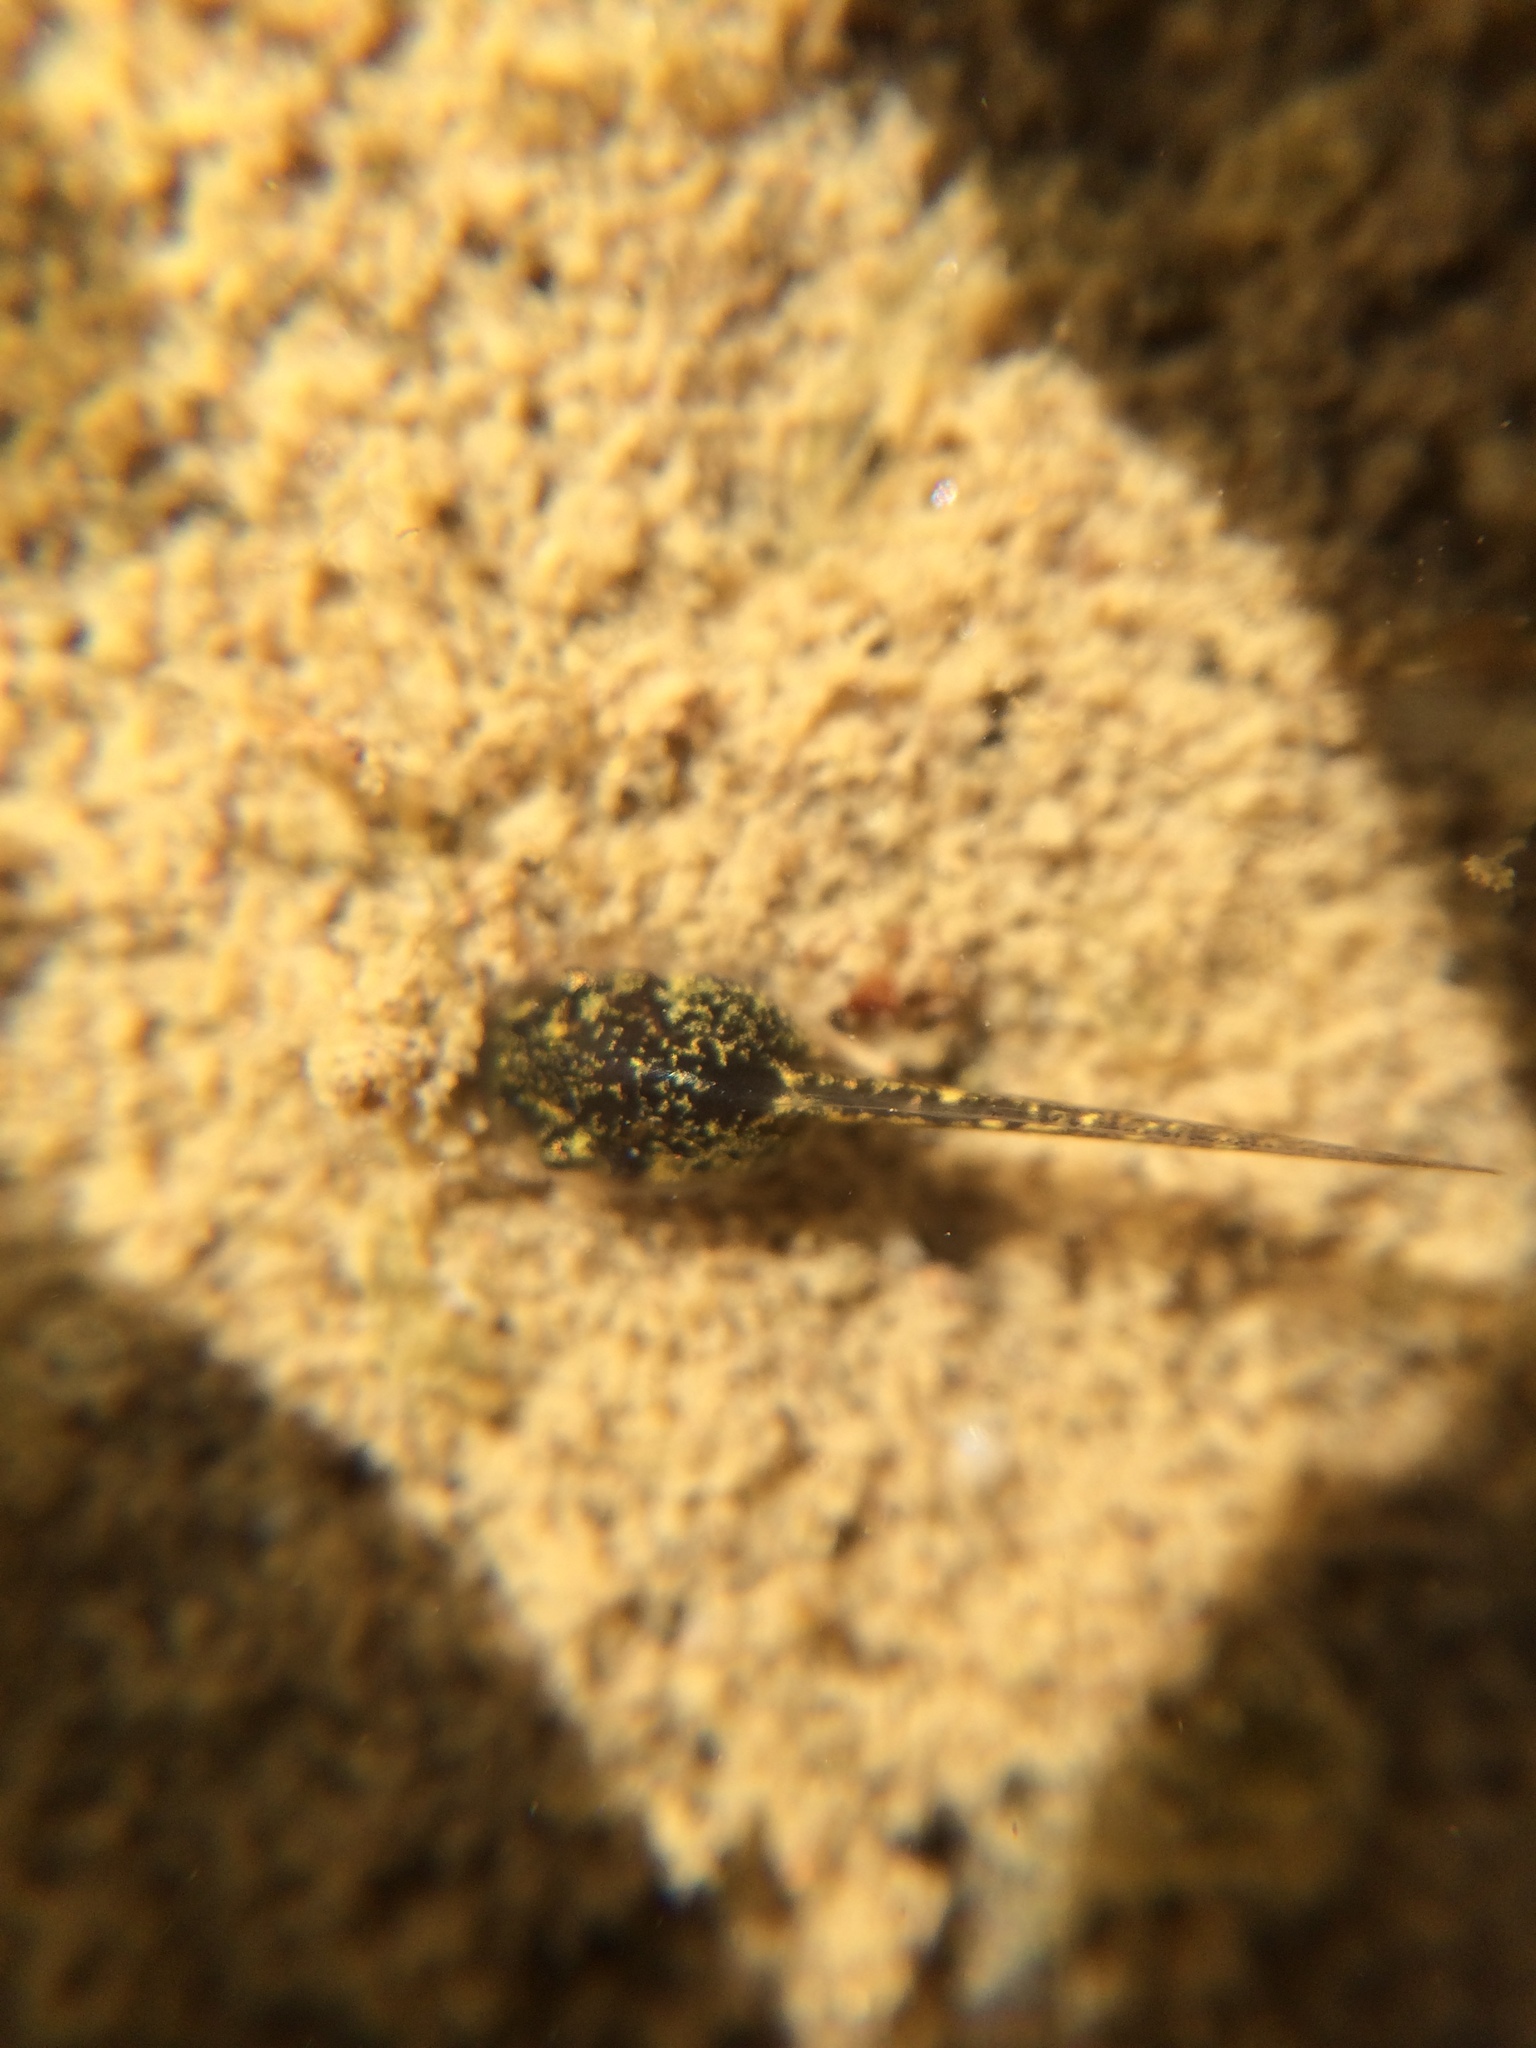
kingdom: Animalia
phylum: Chordata
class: Amphibia
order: Anura
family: Hylidae
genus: Pseudacris
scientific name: Pseudacris regilla
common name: Pacific chorus frog
